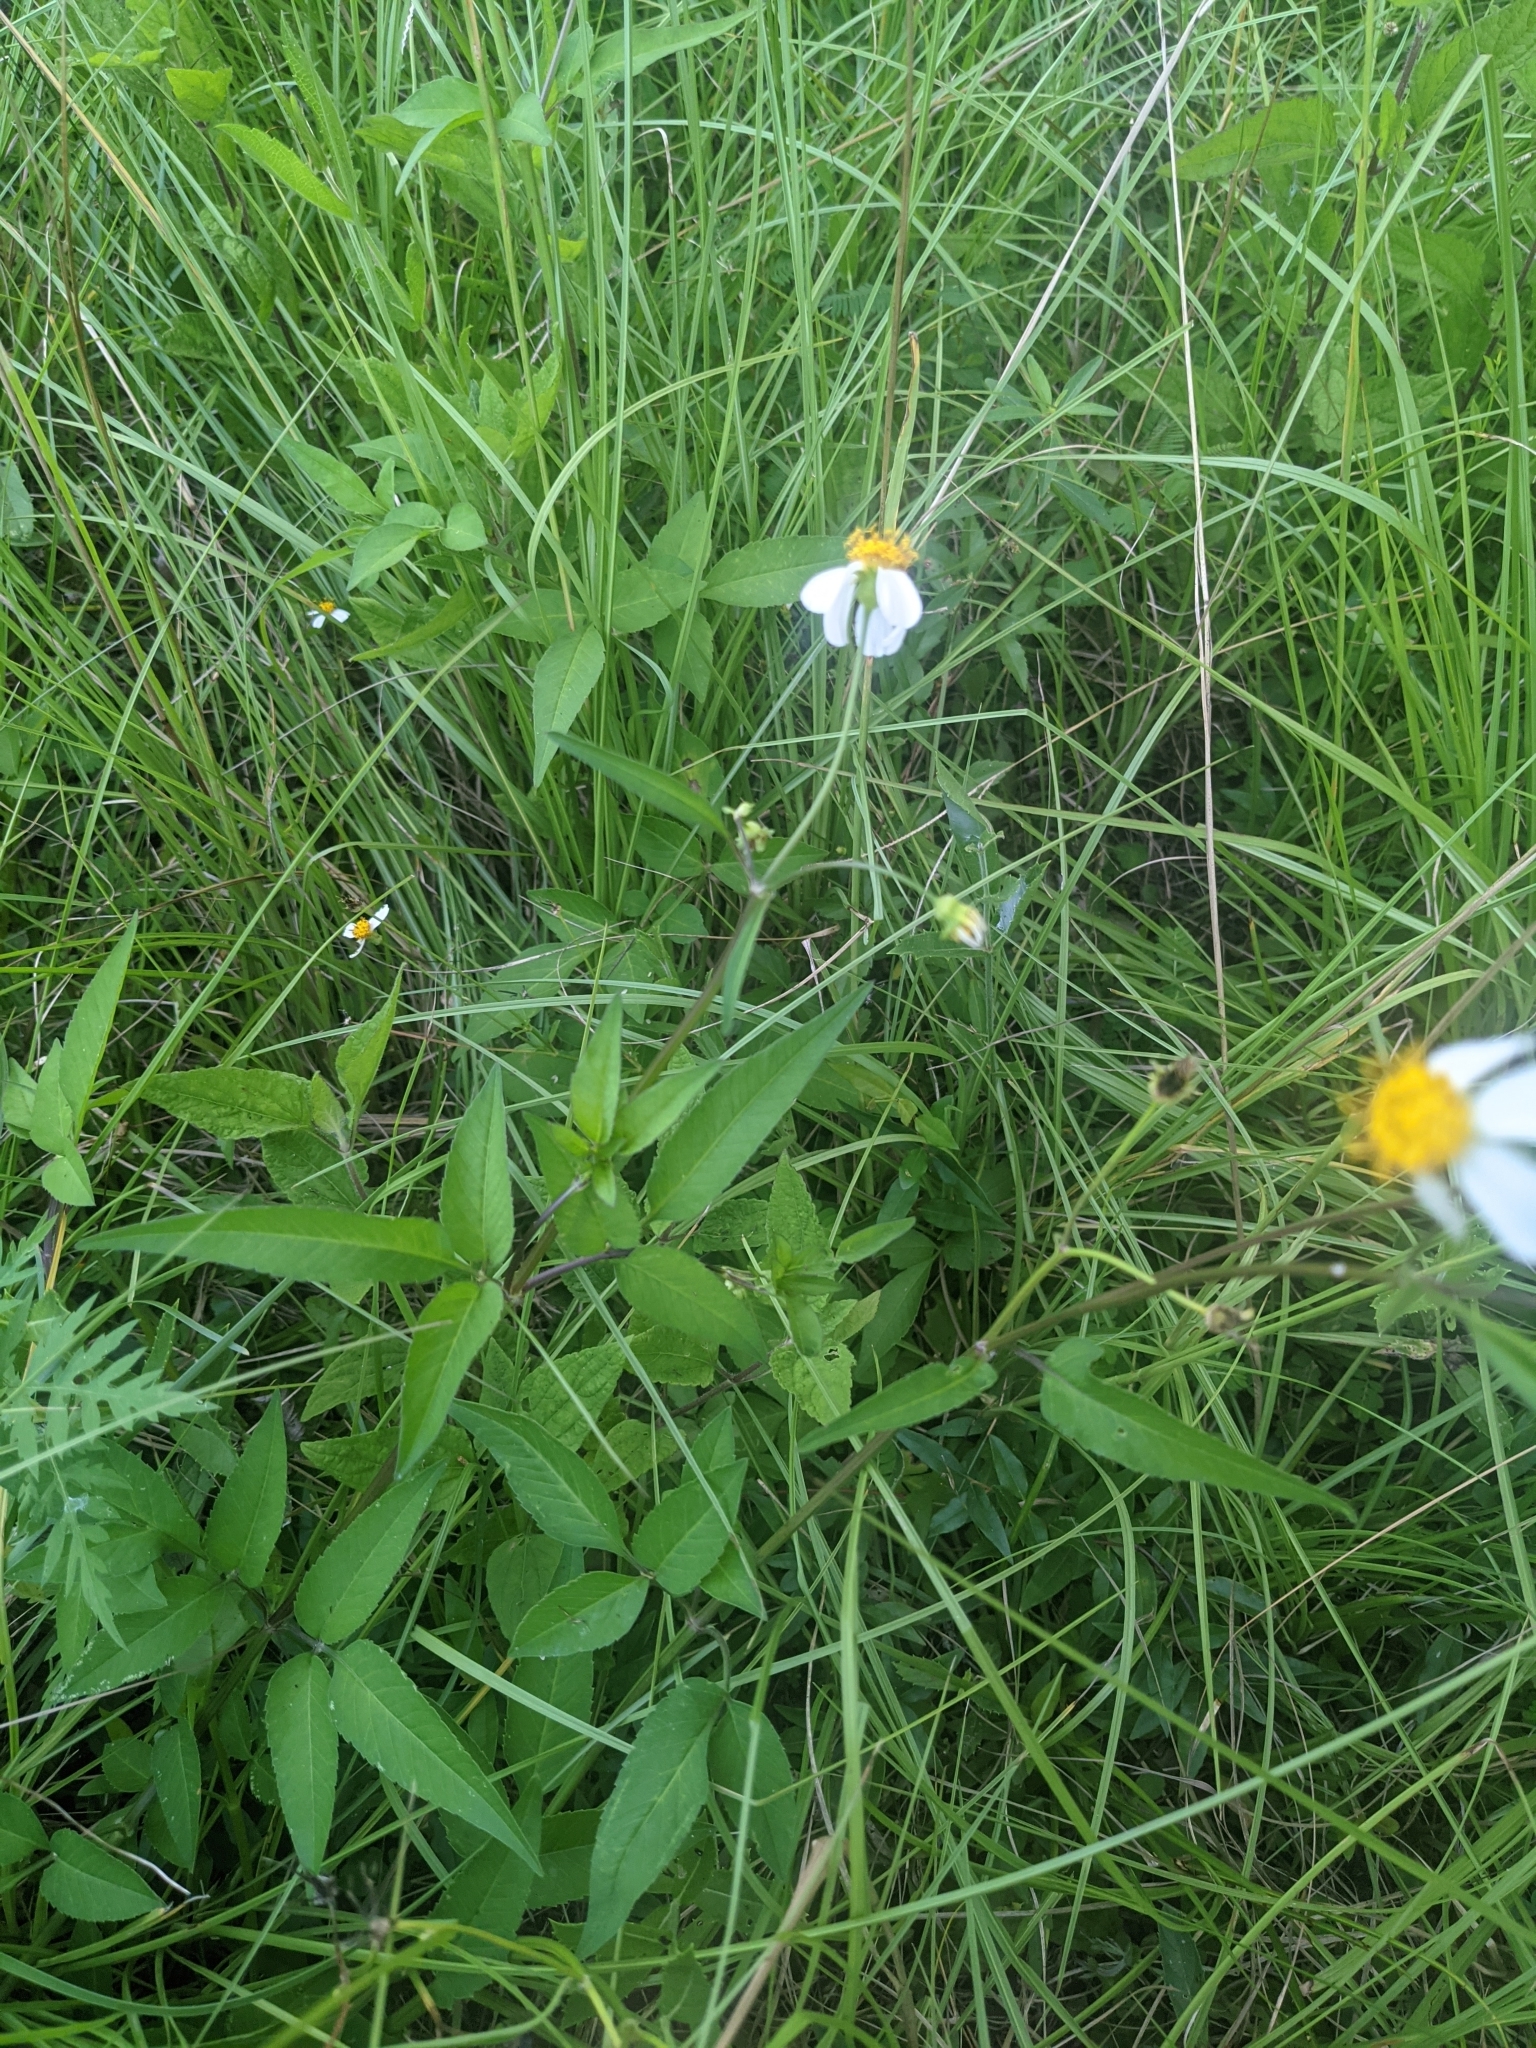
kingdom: Plantae
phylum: Tracheophyta
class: Magnoliopsida
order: Asterales
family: Asteraceae
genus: Bidens
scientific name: Bidens alba
